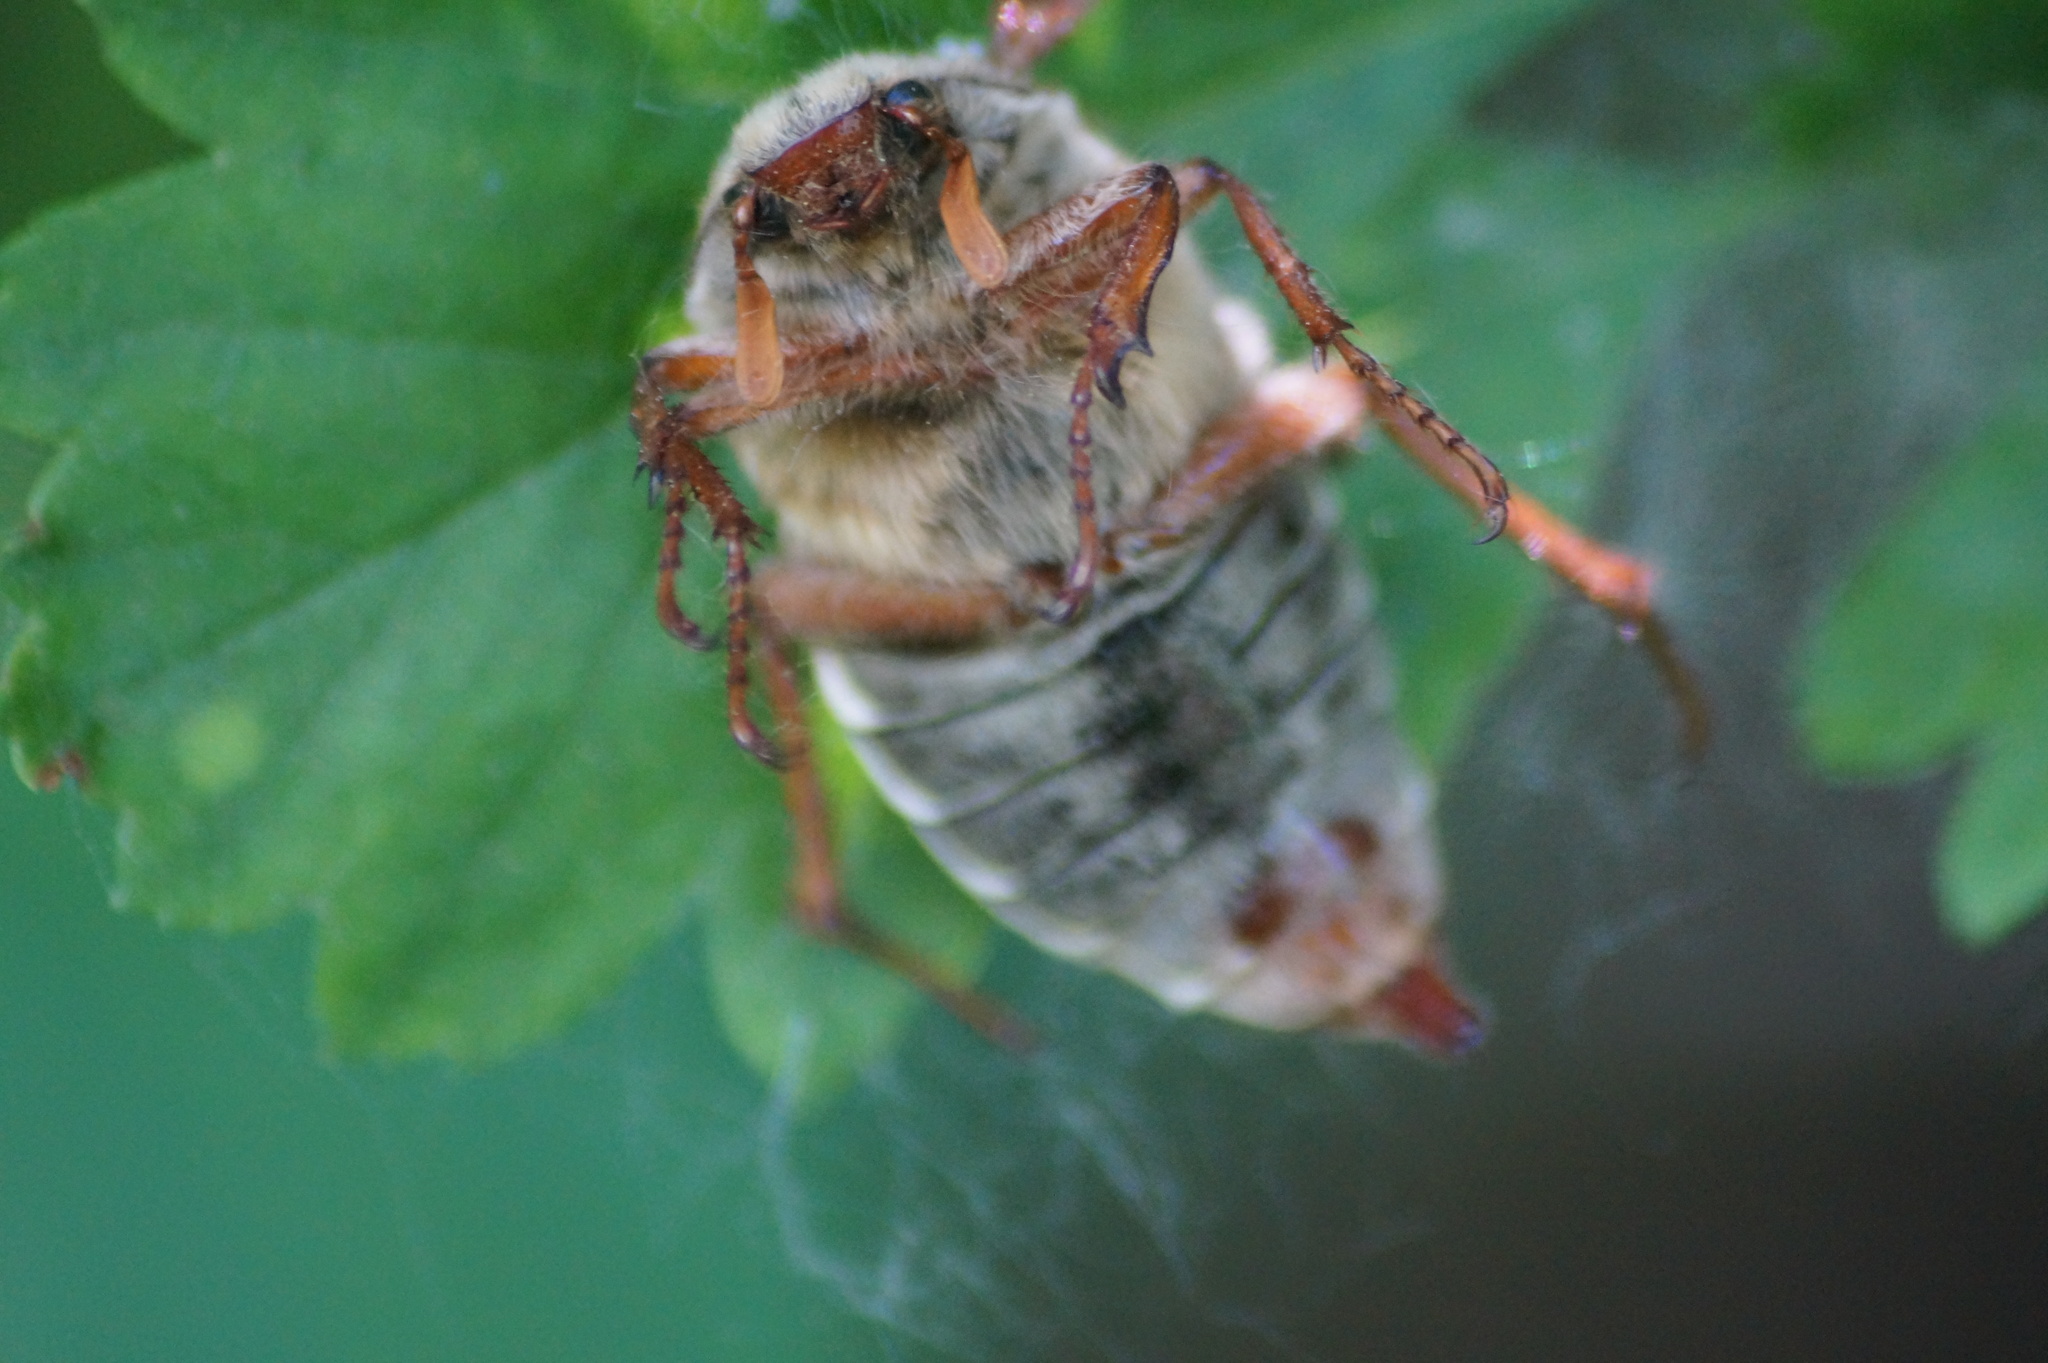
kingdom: Animalia
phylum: Arthropoda
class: Insecta
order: Coleoptera
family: Scarabaeidae
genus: Melolontha
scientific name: Melolontha melolontha
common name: Cockchafer maybeetle
